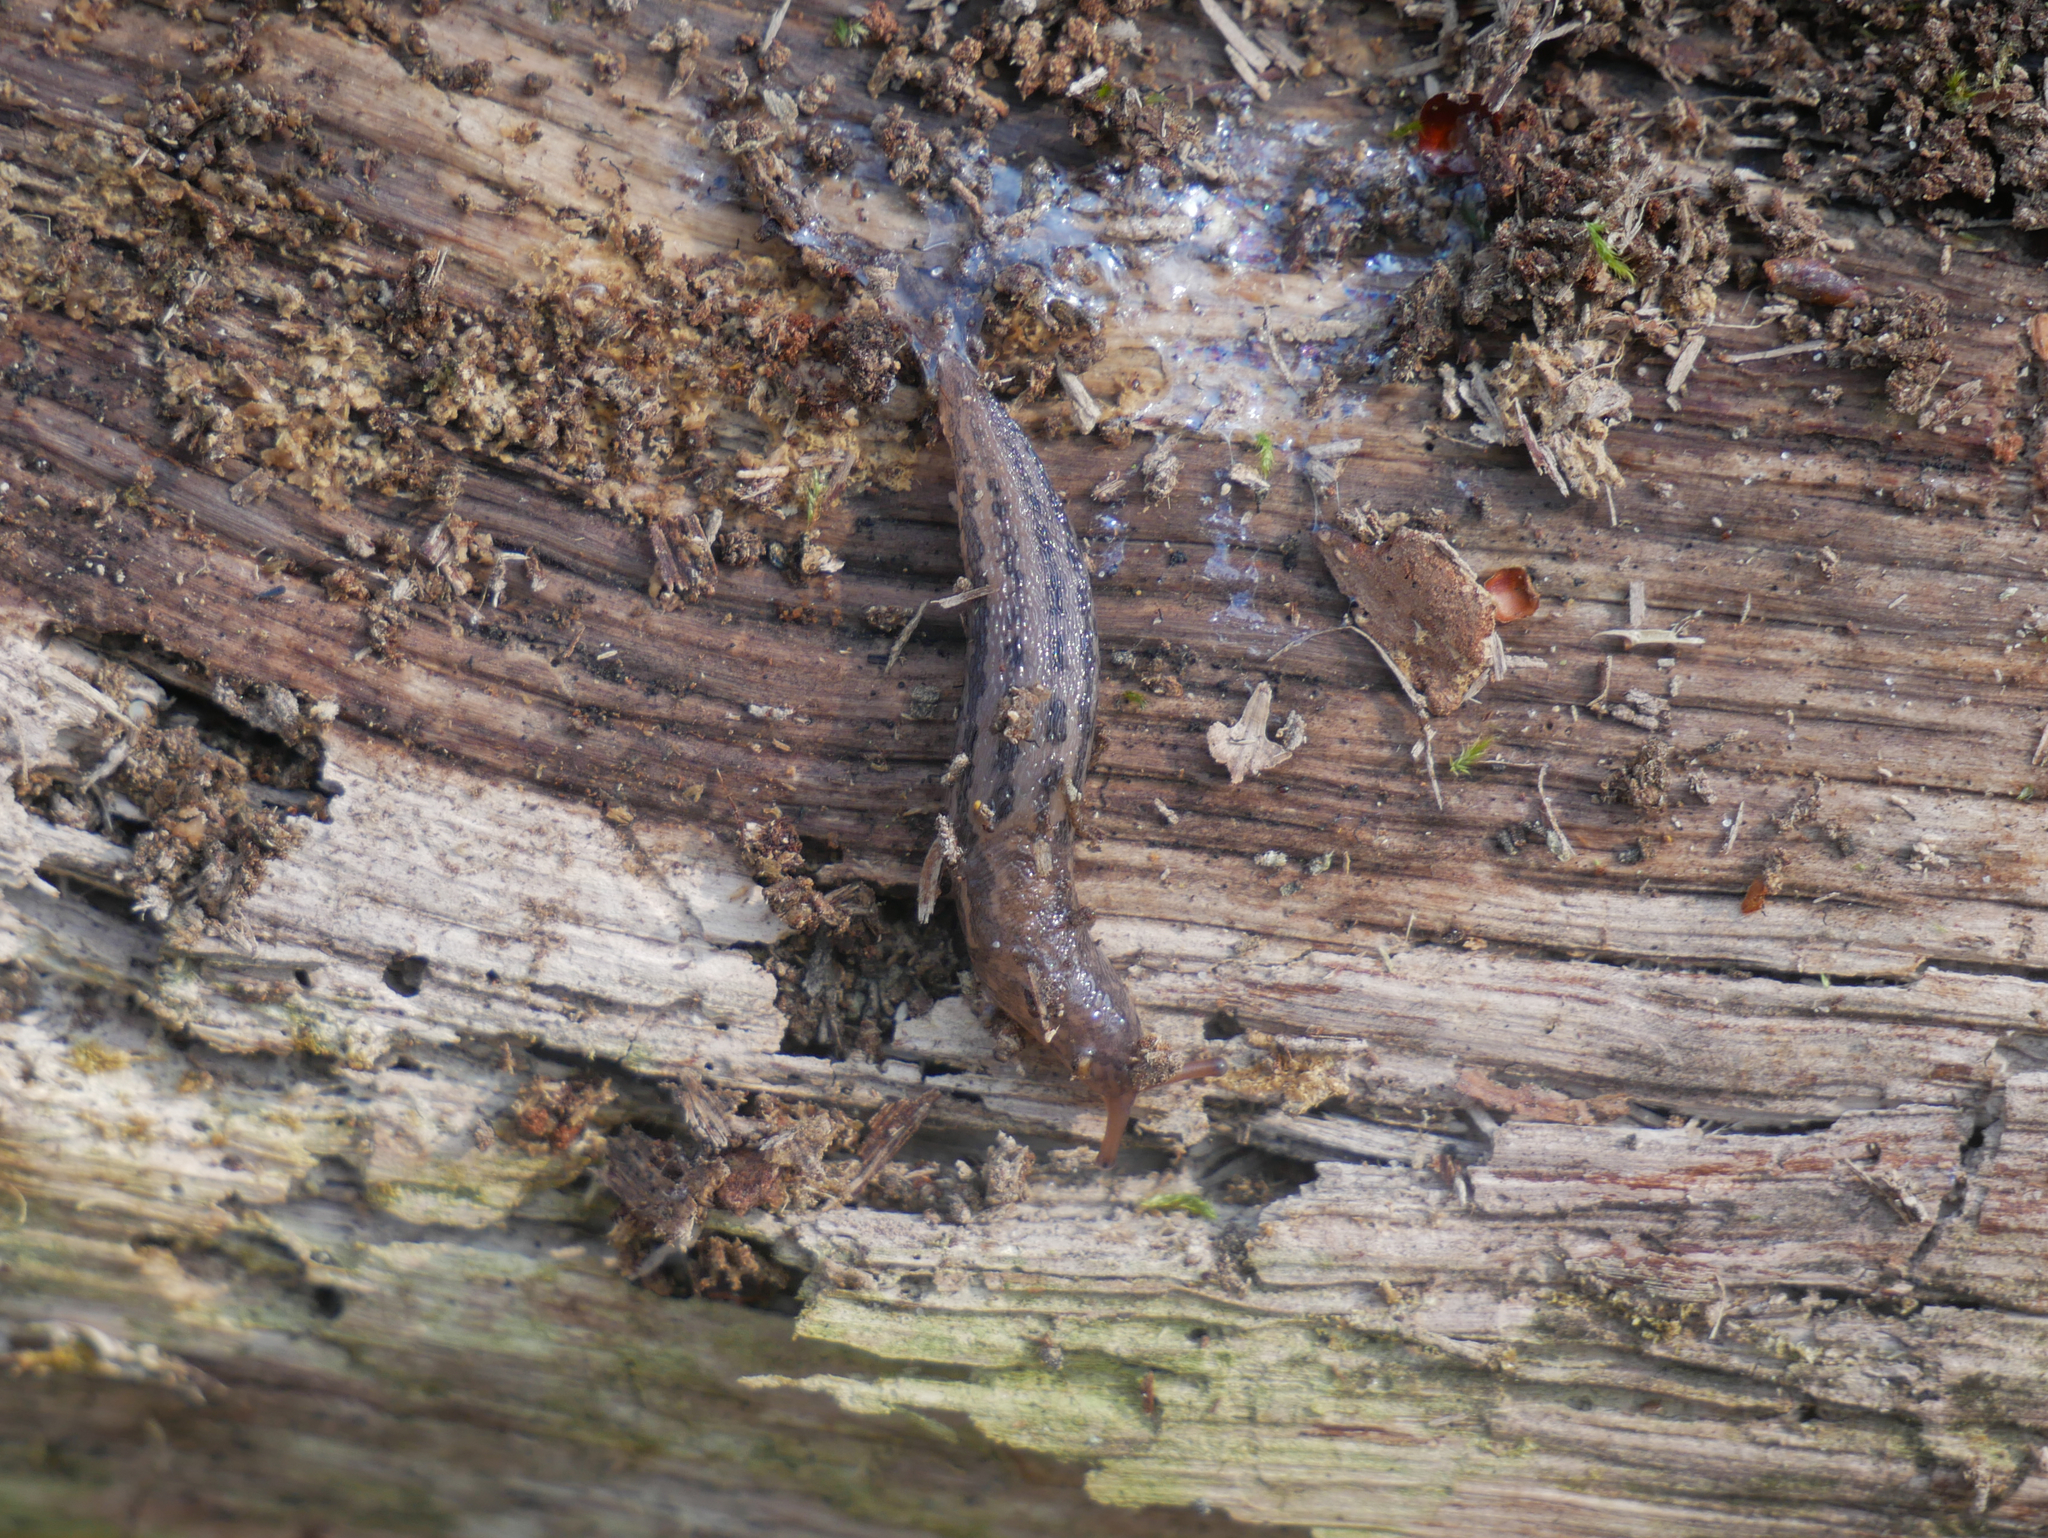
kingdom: Animalia
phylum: Mollusca
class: Gastropoda
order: Stylommatophora
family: Limacidae
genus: Limax
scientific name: Limax maximus
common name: Great grey slug
